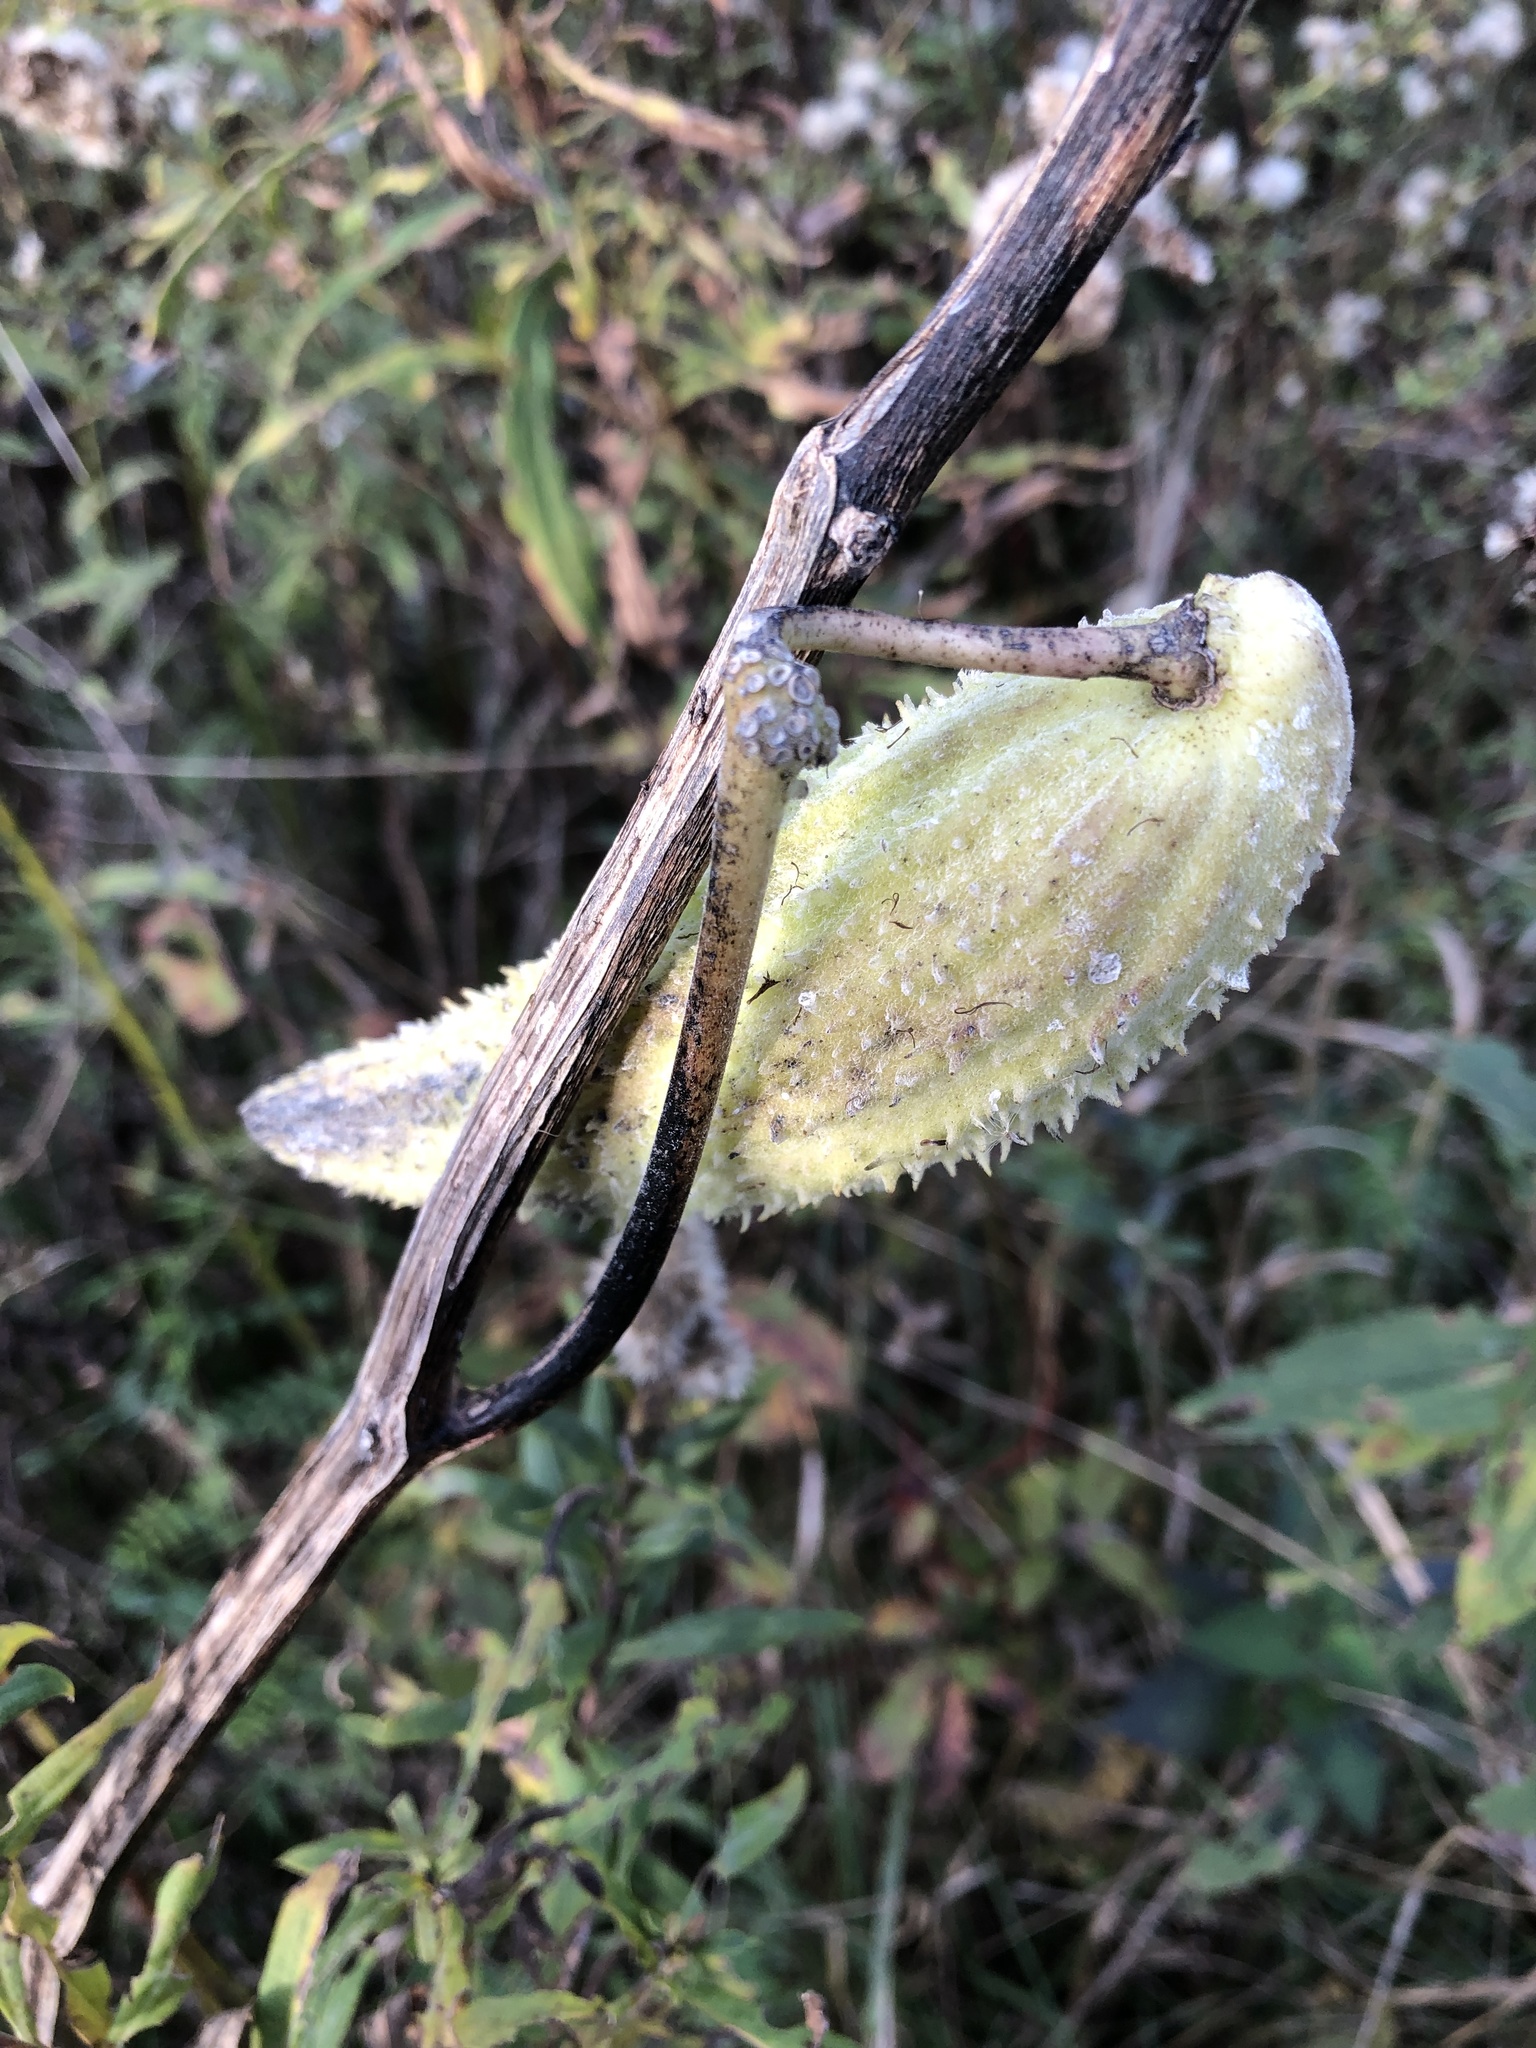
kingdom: Plantae
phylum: Tracheophyta
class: Magnoliopsida
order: Gentianales
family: Apocynaceae
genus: Asclepias
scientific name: Asclepias syriaca
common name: Common milkweed
